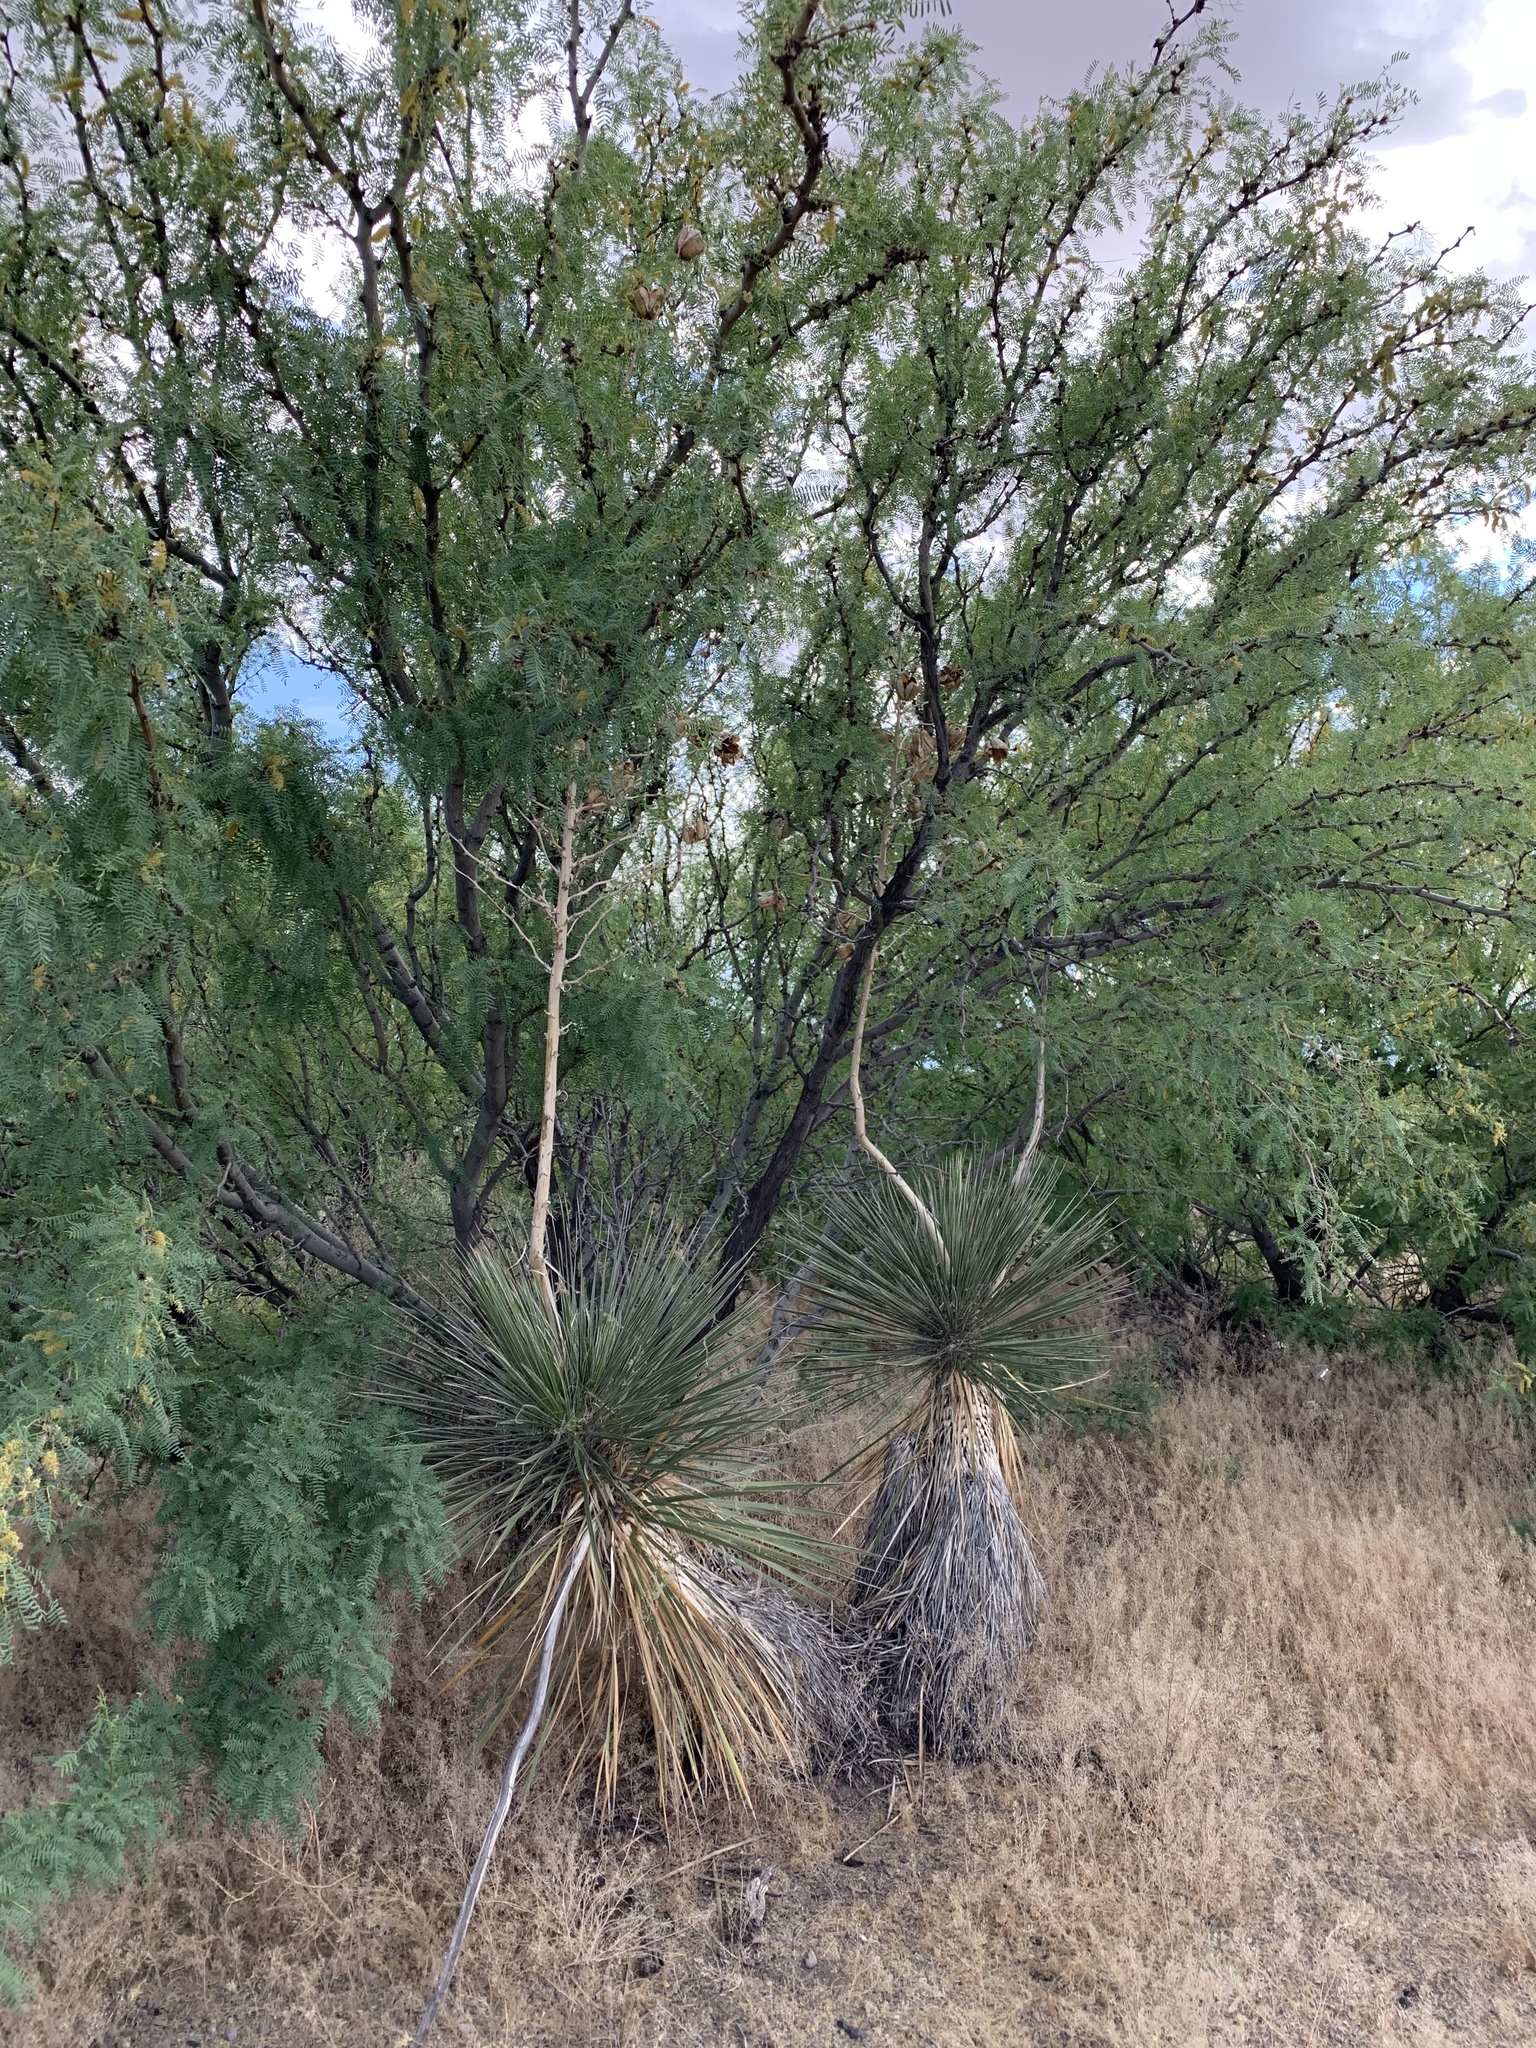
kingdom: Plantae
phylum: Tracheophyta
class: Liliopsida
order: Asparagales
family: Asparagaceae
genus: Yucca
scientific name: Yucca elata
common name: Palmella
